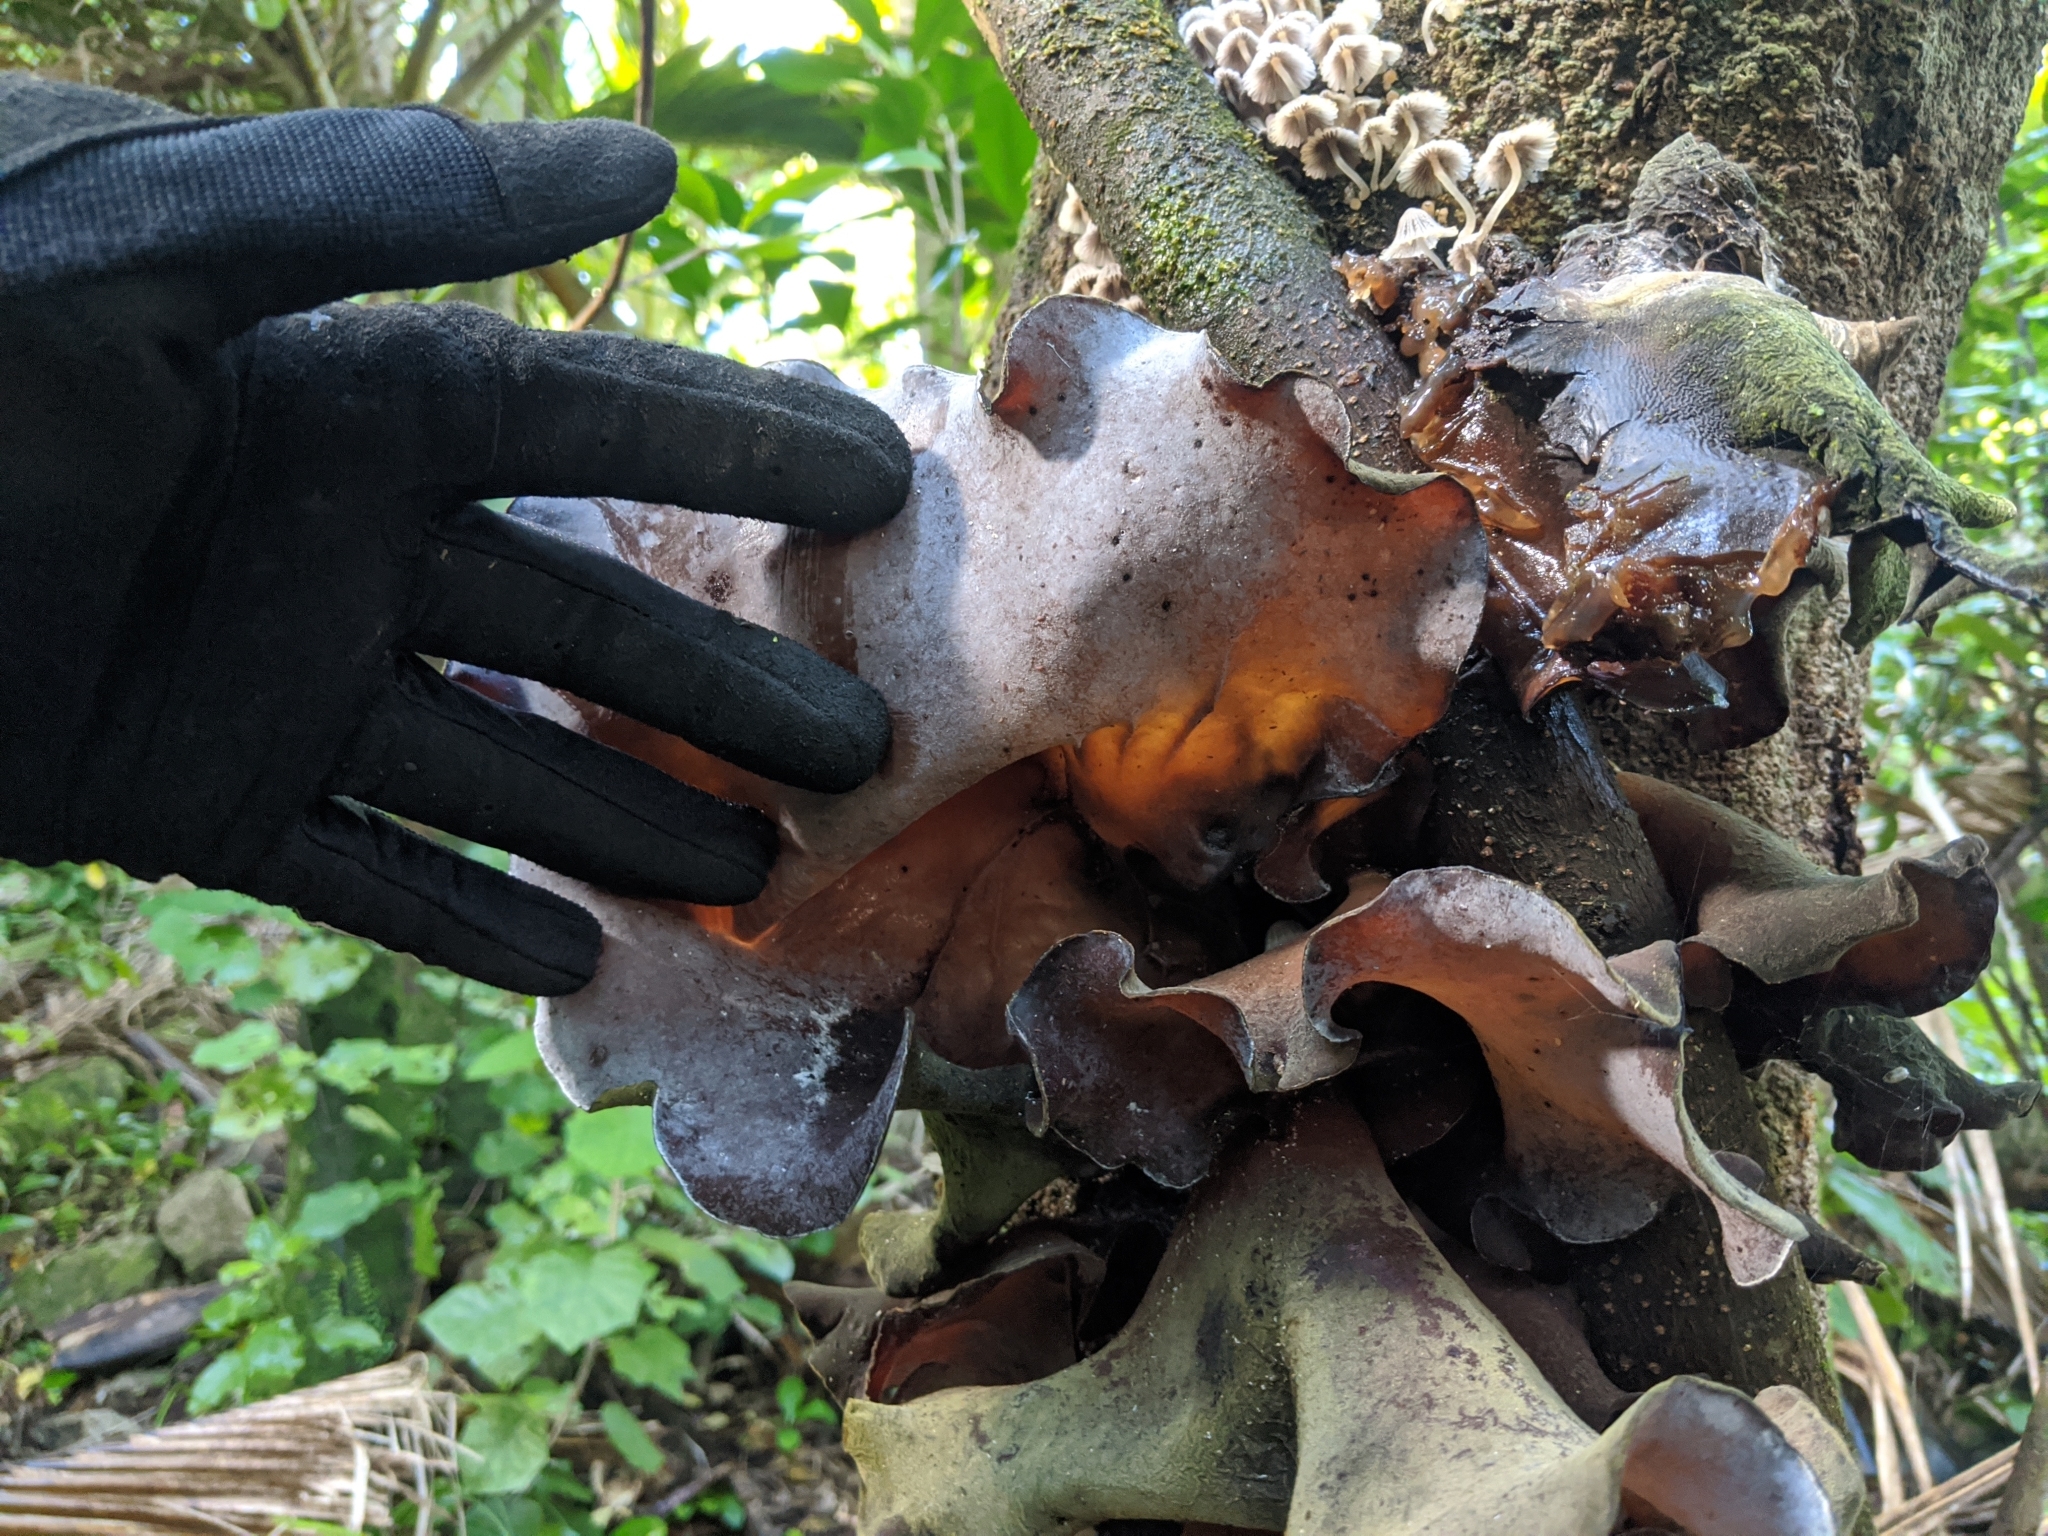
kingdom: Fungi
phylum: Basidiomycota
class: Agaricomycetes
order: Auriculariales
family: Auriculariaceae
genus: Auricularia
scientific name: Auricularia cornea
